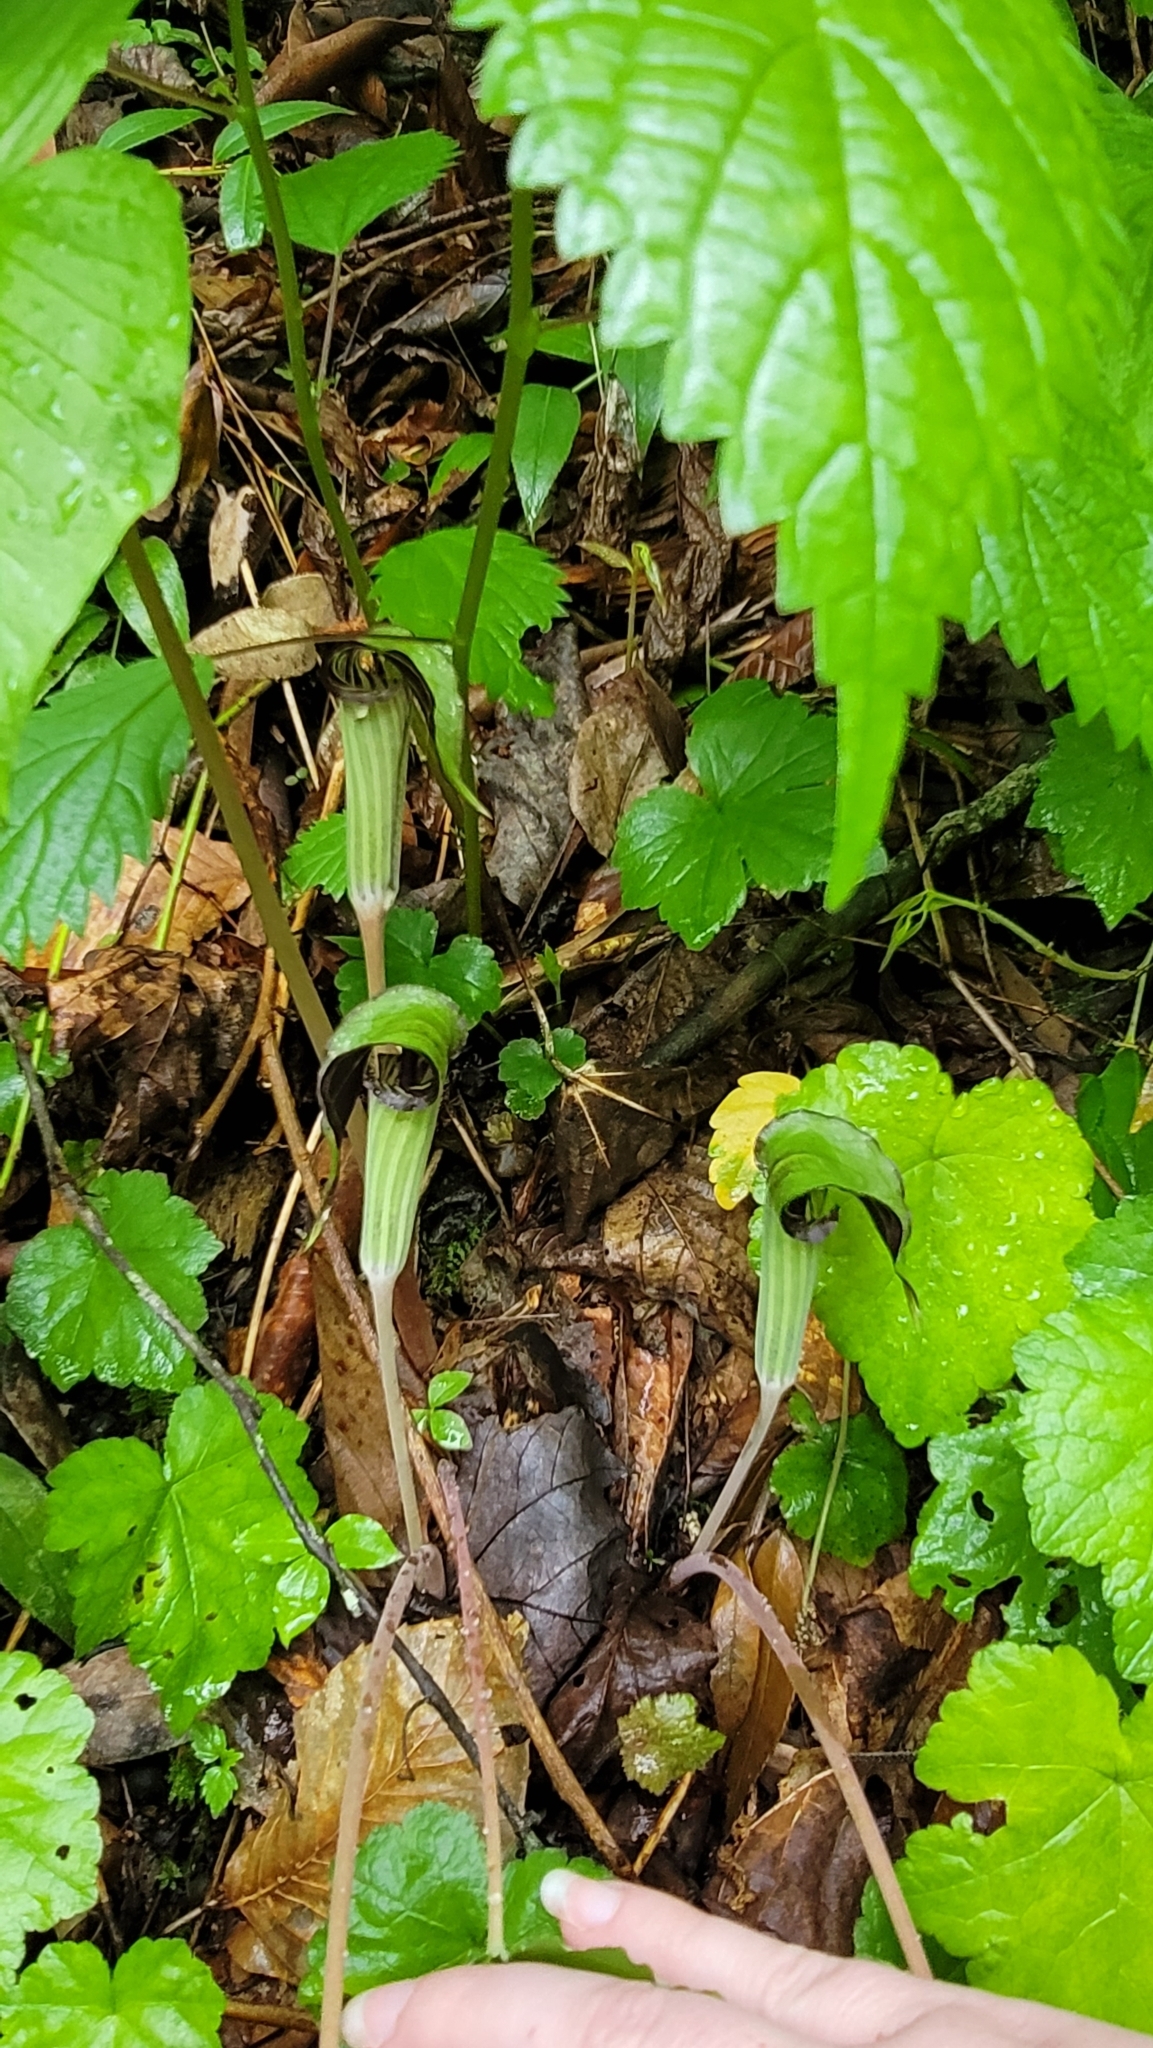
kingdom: Plantae
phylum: Tracheophyta
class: Liliopsida
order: Alismatales
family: Araceae
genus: Arisaema
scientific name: Arisaema triphyllum
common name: Jack-in-the-pulpit
